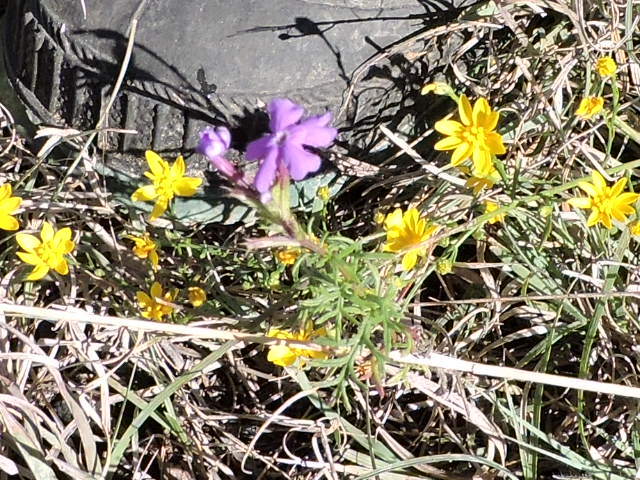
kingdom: Plantae
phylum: Tracheophyta
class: Magnoliopsida
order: Lamiales
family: Verbenaceae
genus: Verbena
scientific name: Verbena bipinnatifida
